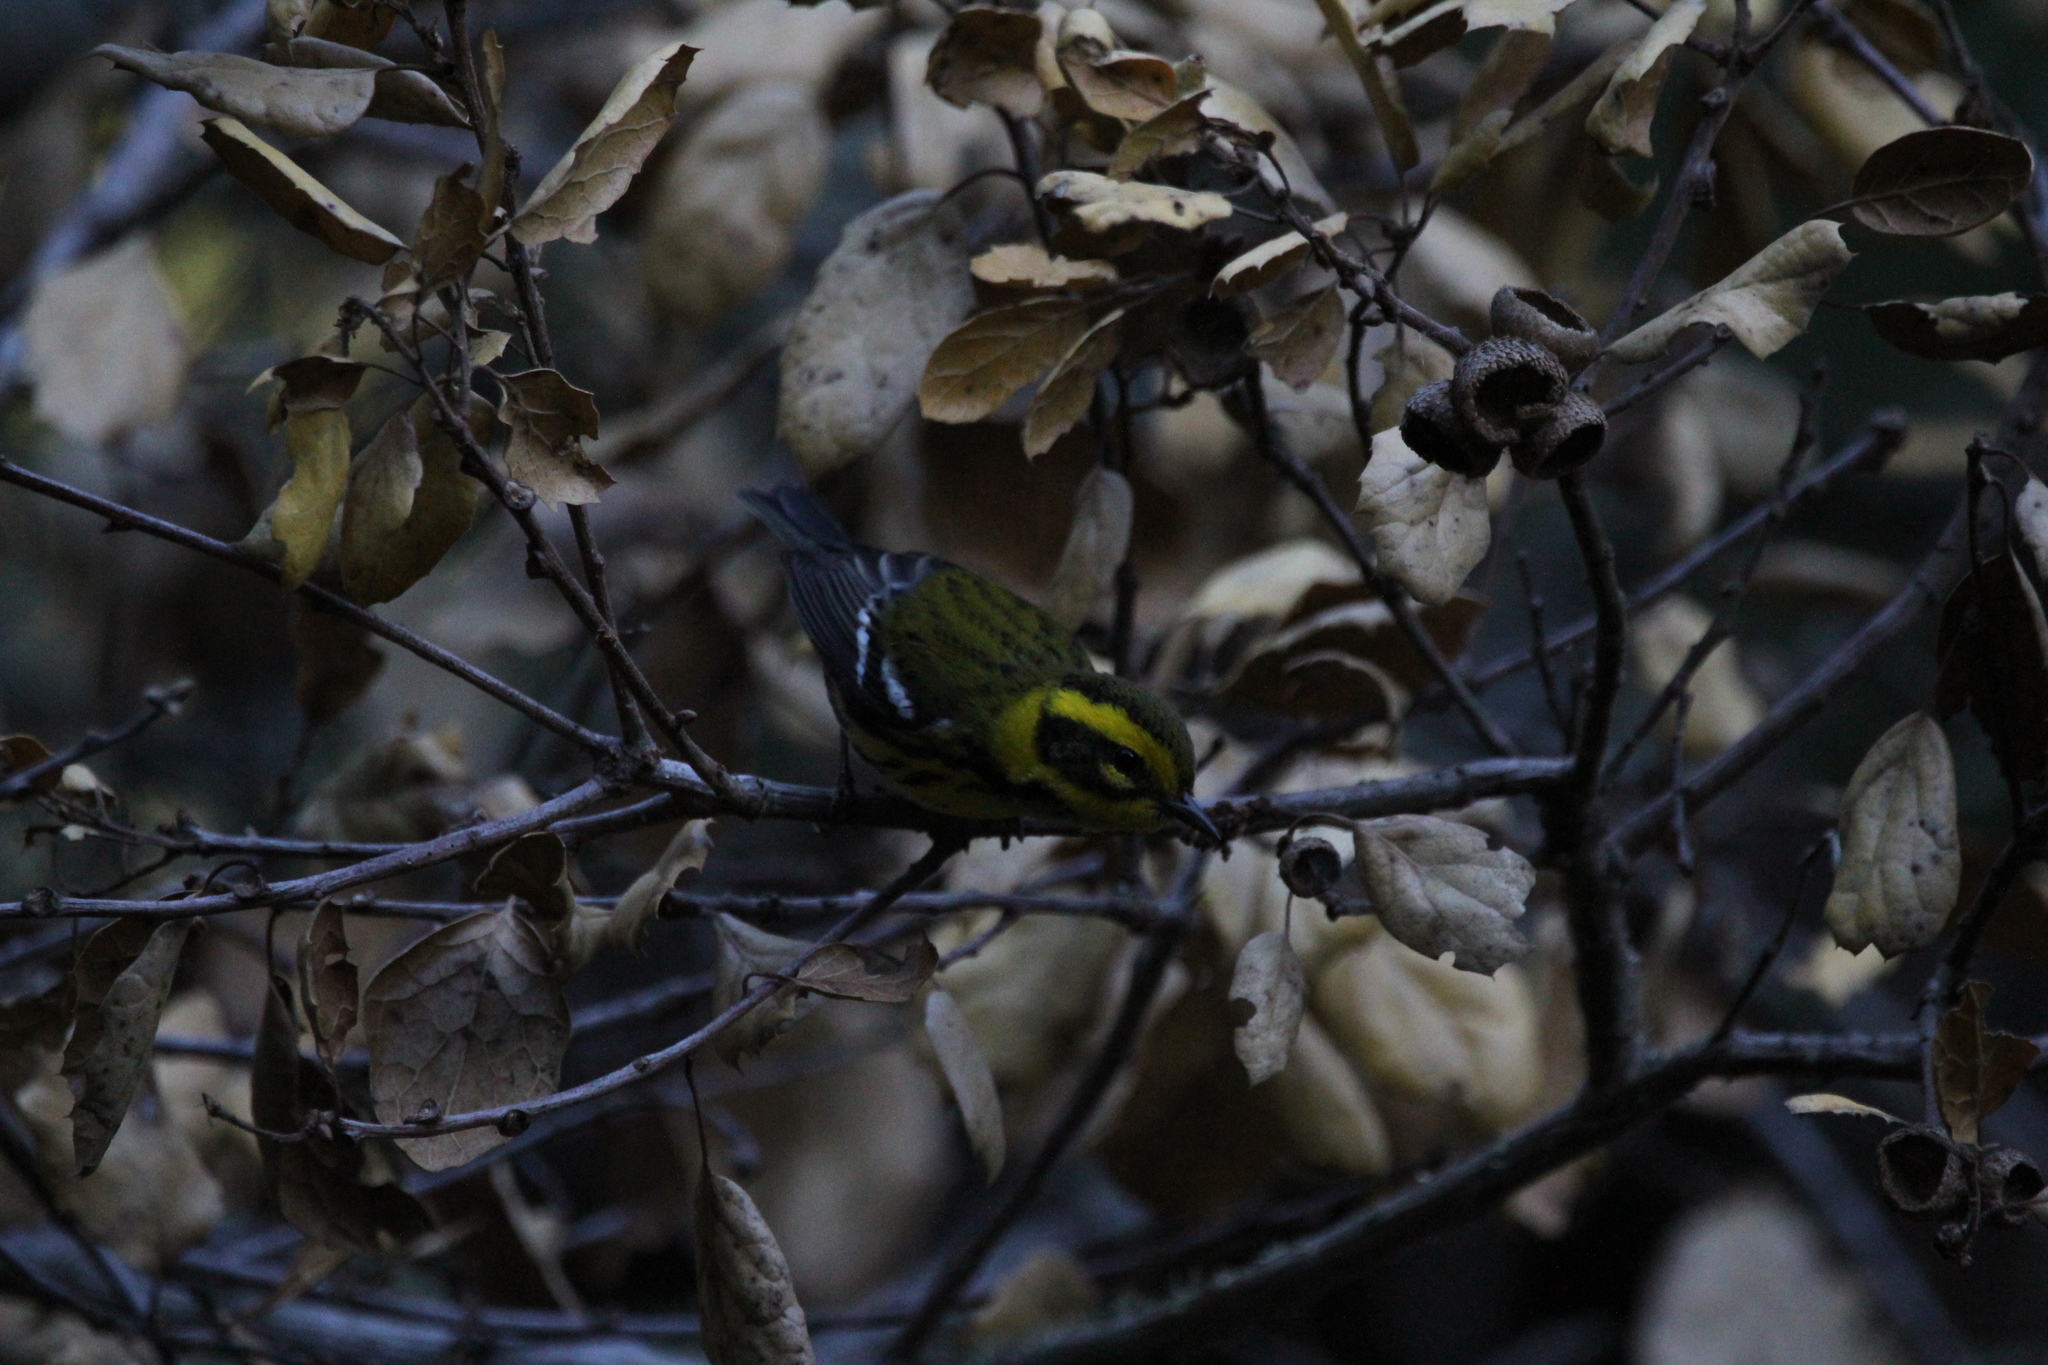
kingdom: Animalia
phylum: Chordata
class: Aves
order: Passeriformes
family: Parulidae
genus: Setophaga
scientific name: Setophaga townsendi
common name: Townsend's warbler
